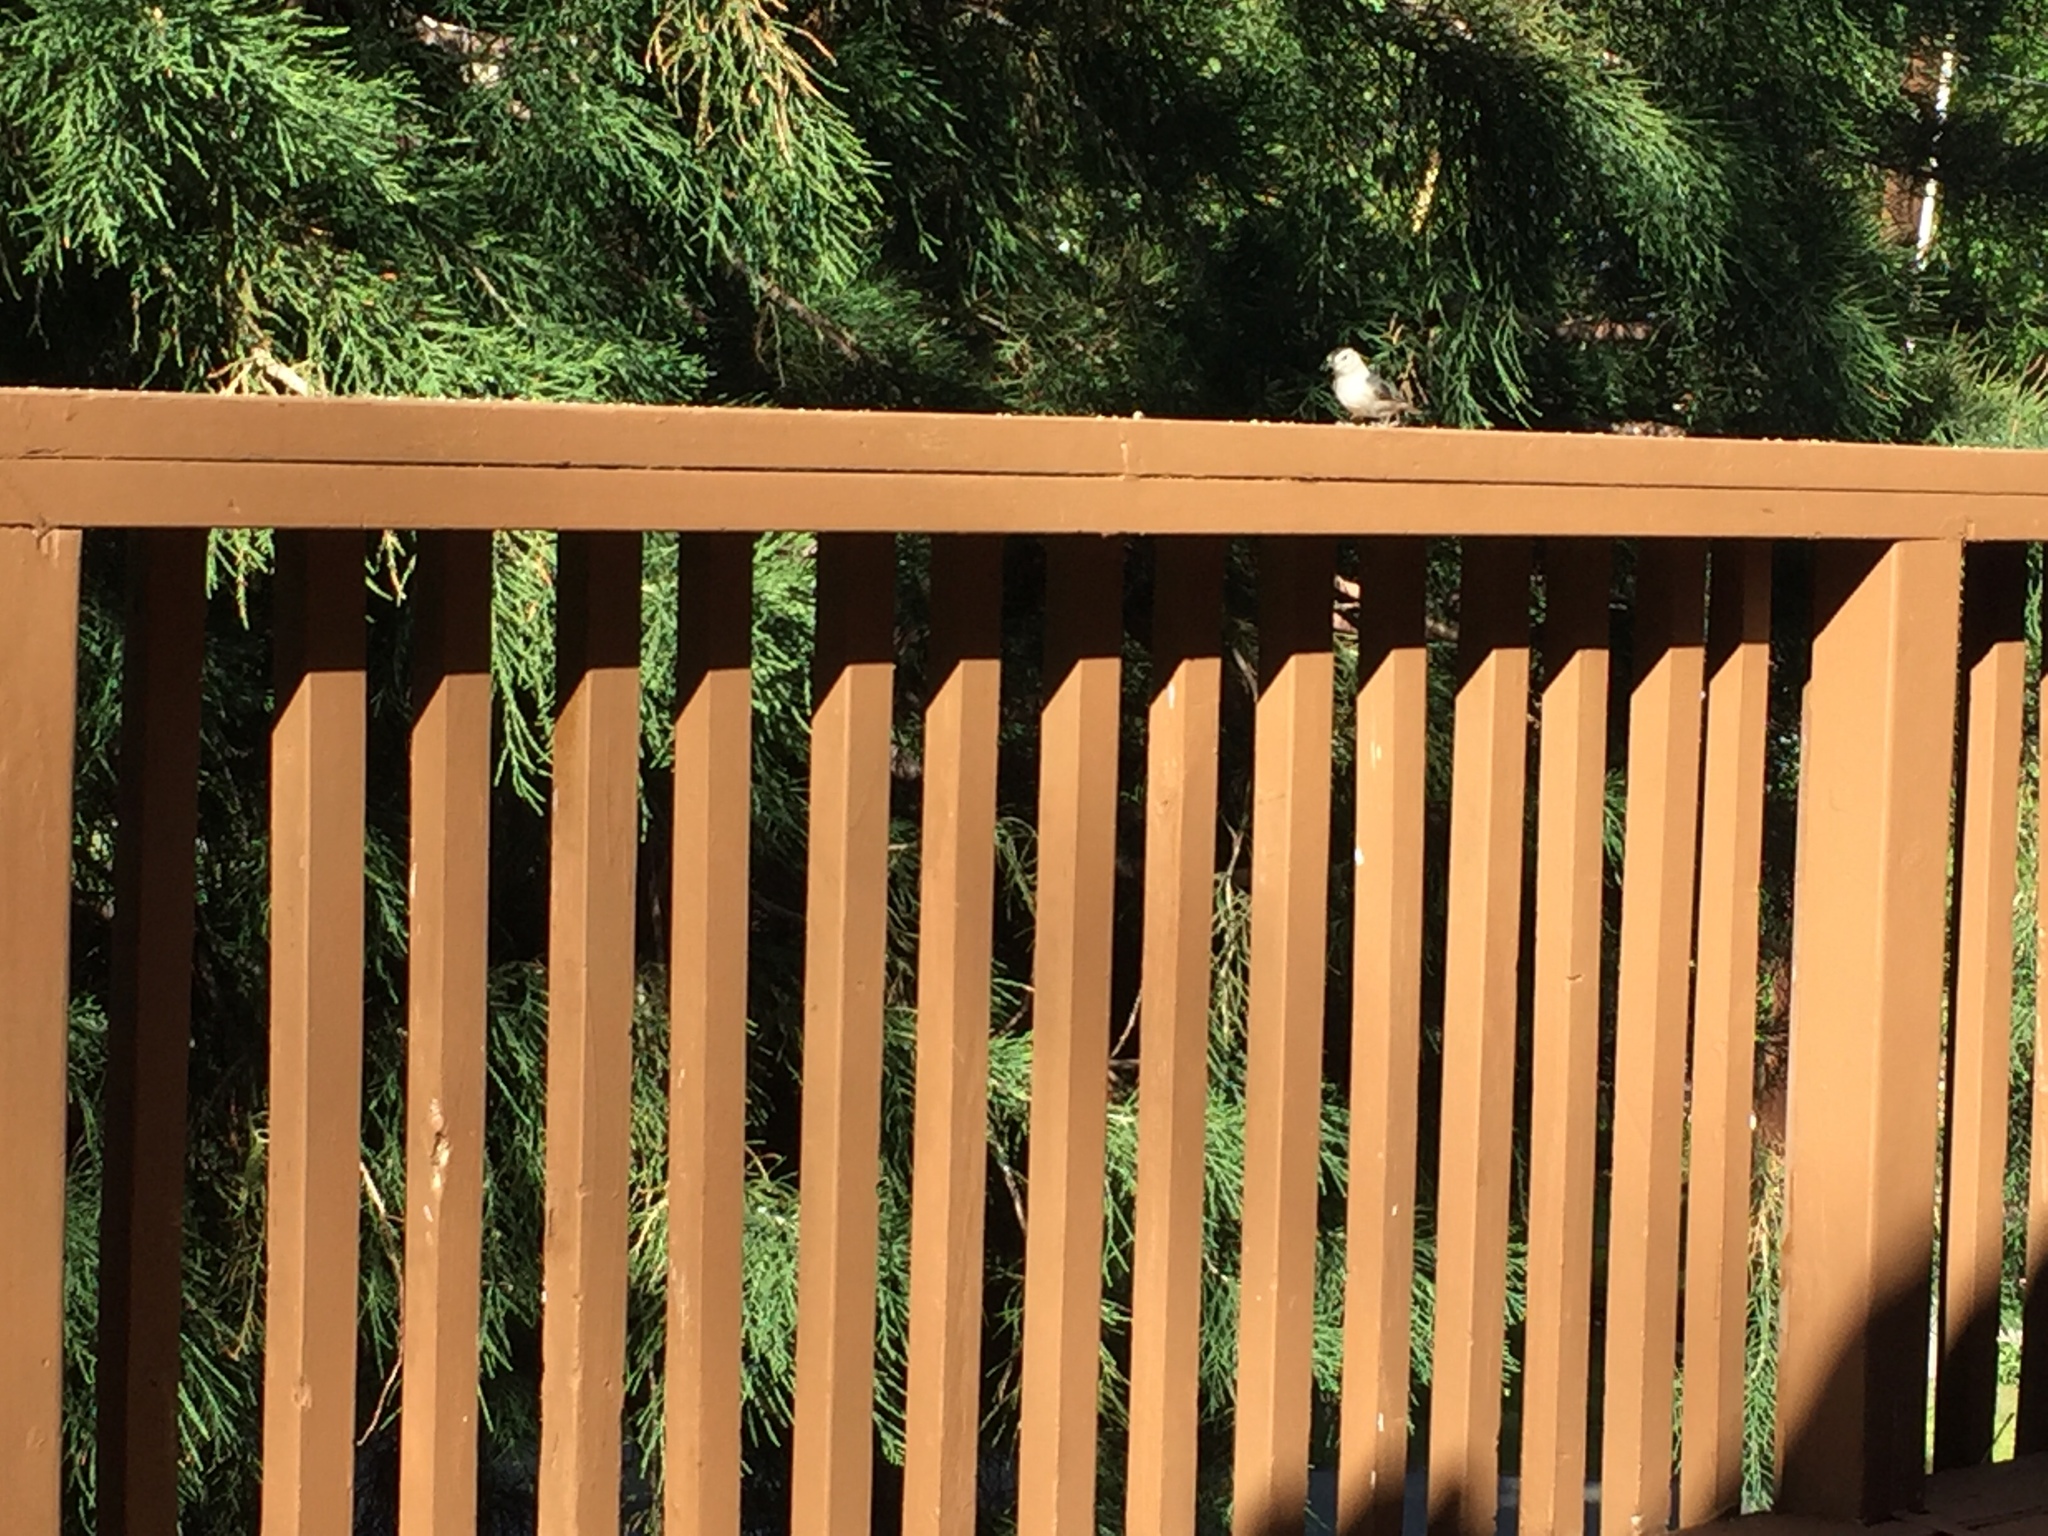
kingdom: Animalia
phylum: Chordata
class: Aves
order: Passeriformes
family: Sittidae
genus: Sitta
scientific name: Sitta carolinensis
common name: White-breasted nuthatch
